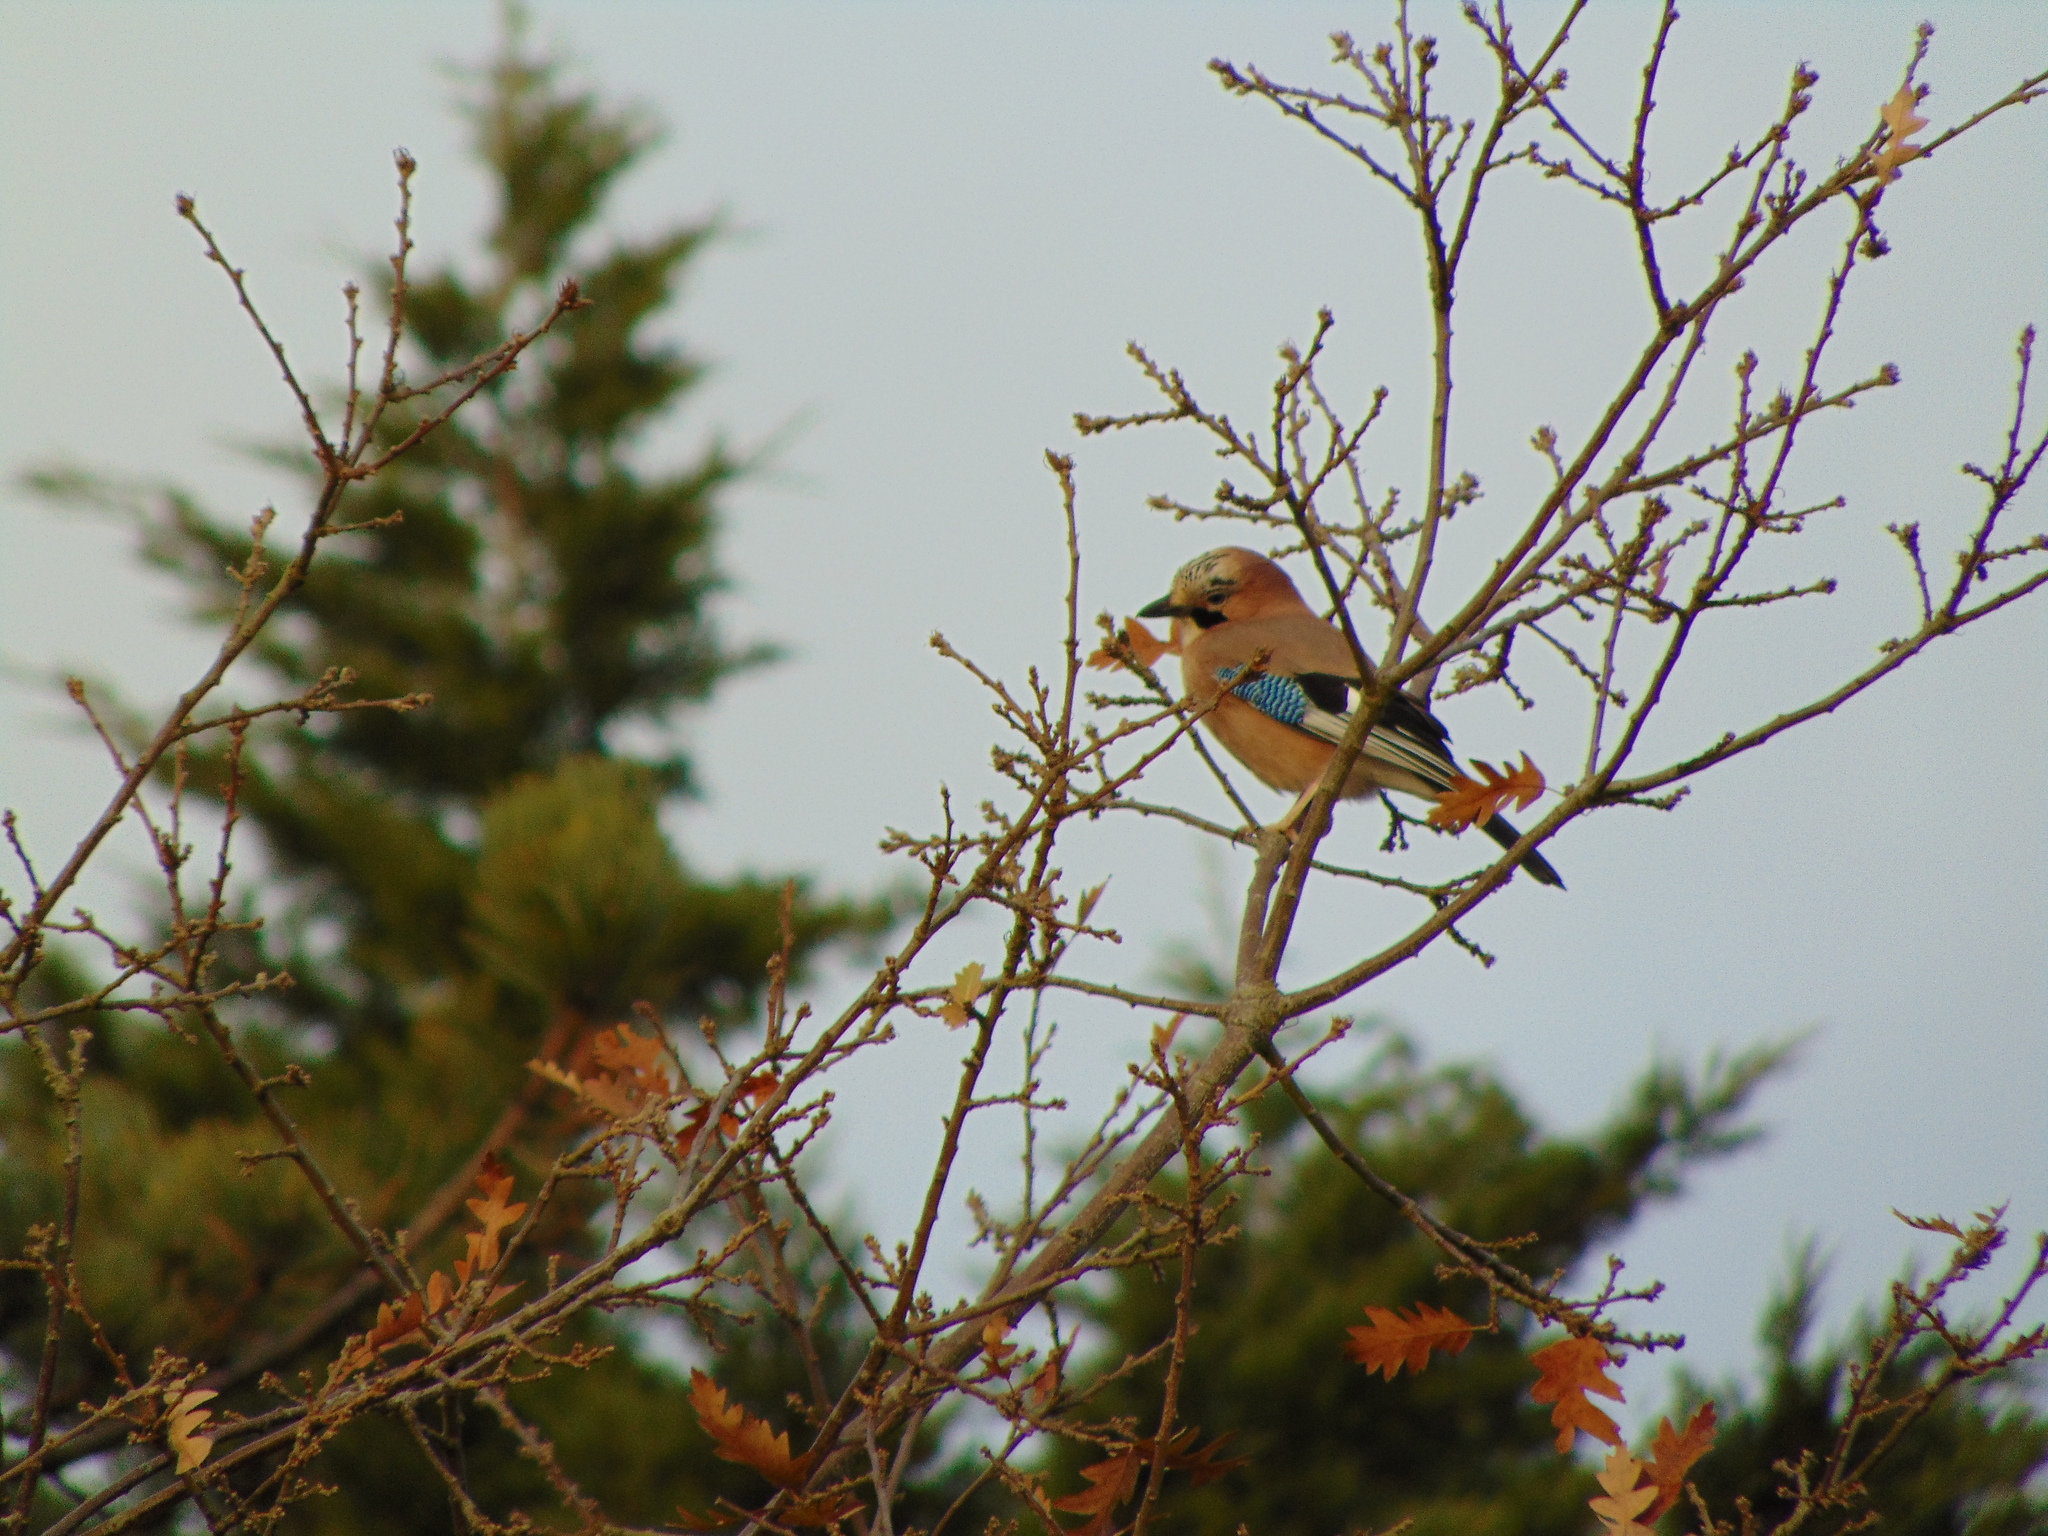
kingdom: Animalia
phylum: Chordata
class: Aves
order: Passeriformes
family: Corvidae
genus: Garrulus
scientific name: Garrulus glandarius
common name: Eurasian jay
